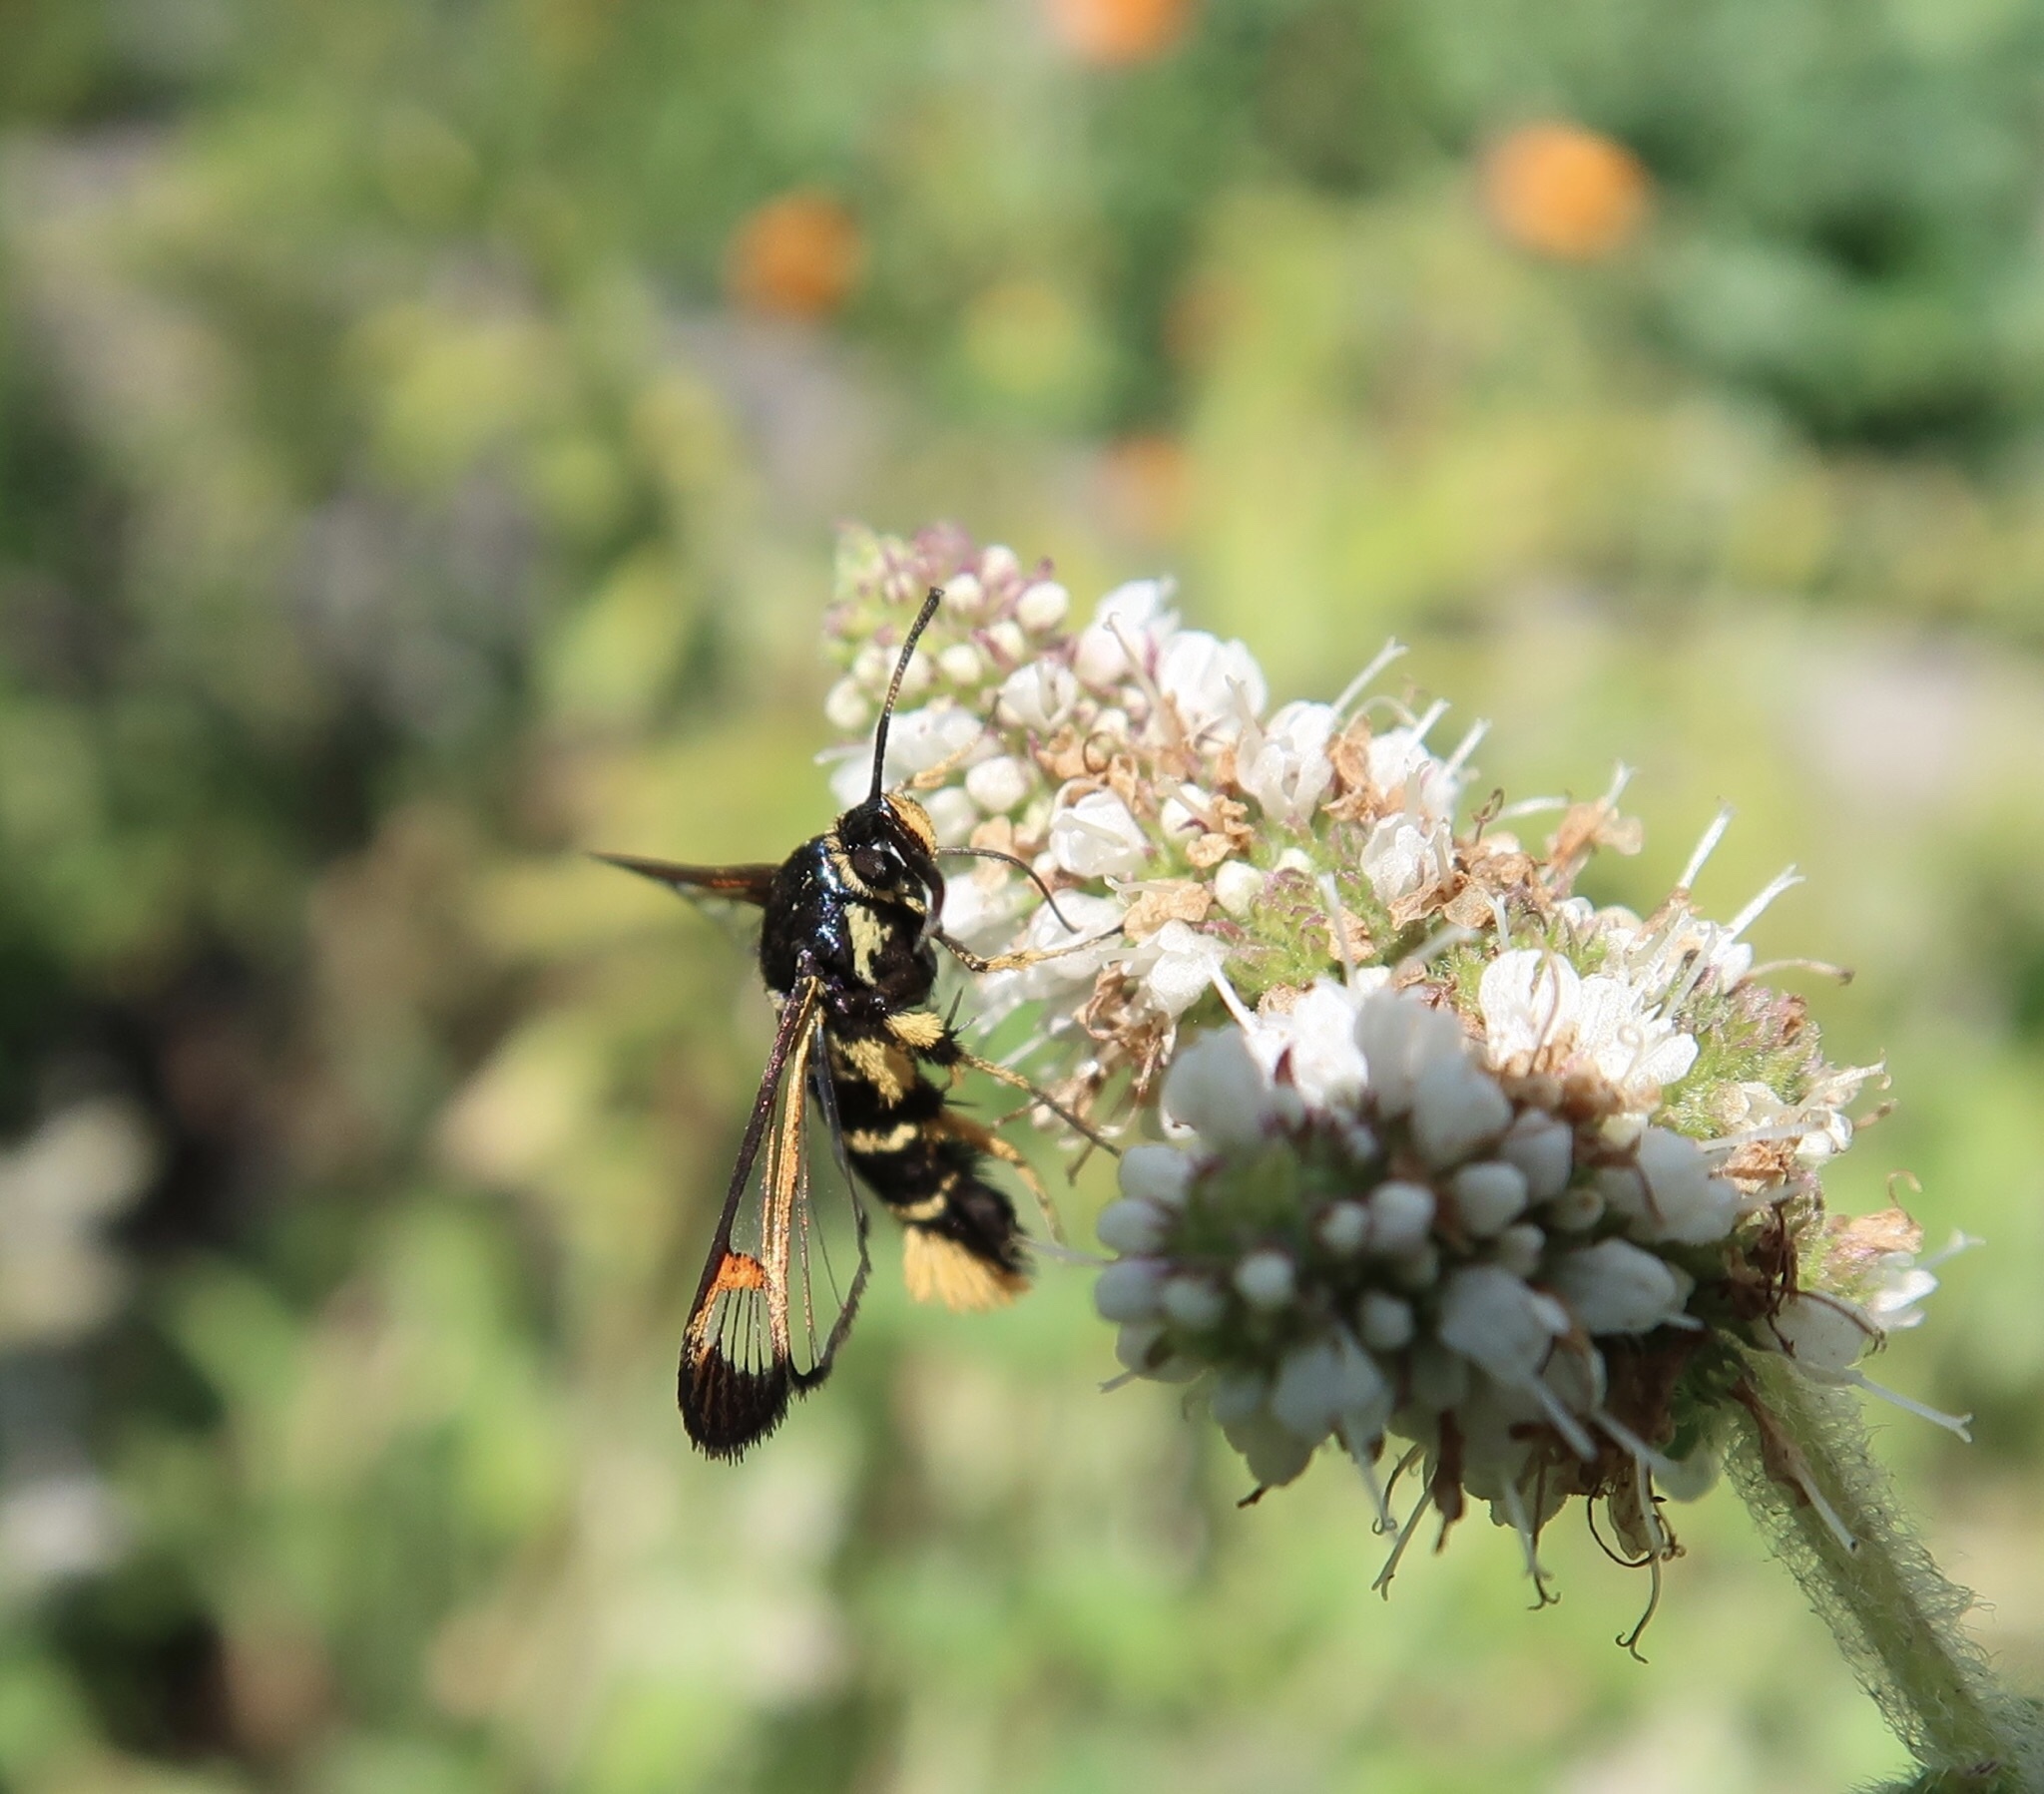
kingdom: Animalia
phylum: Arthropoda
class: Insecta
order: Lepidoptera
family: Sesiidae
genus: Synanthedon
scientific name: Synanthedon vespiformis
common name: Yellow-legged clearwing
